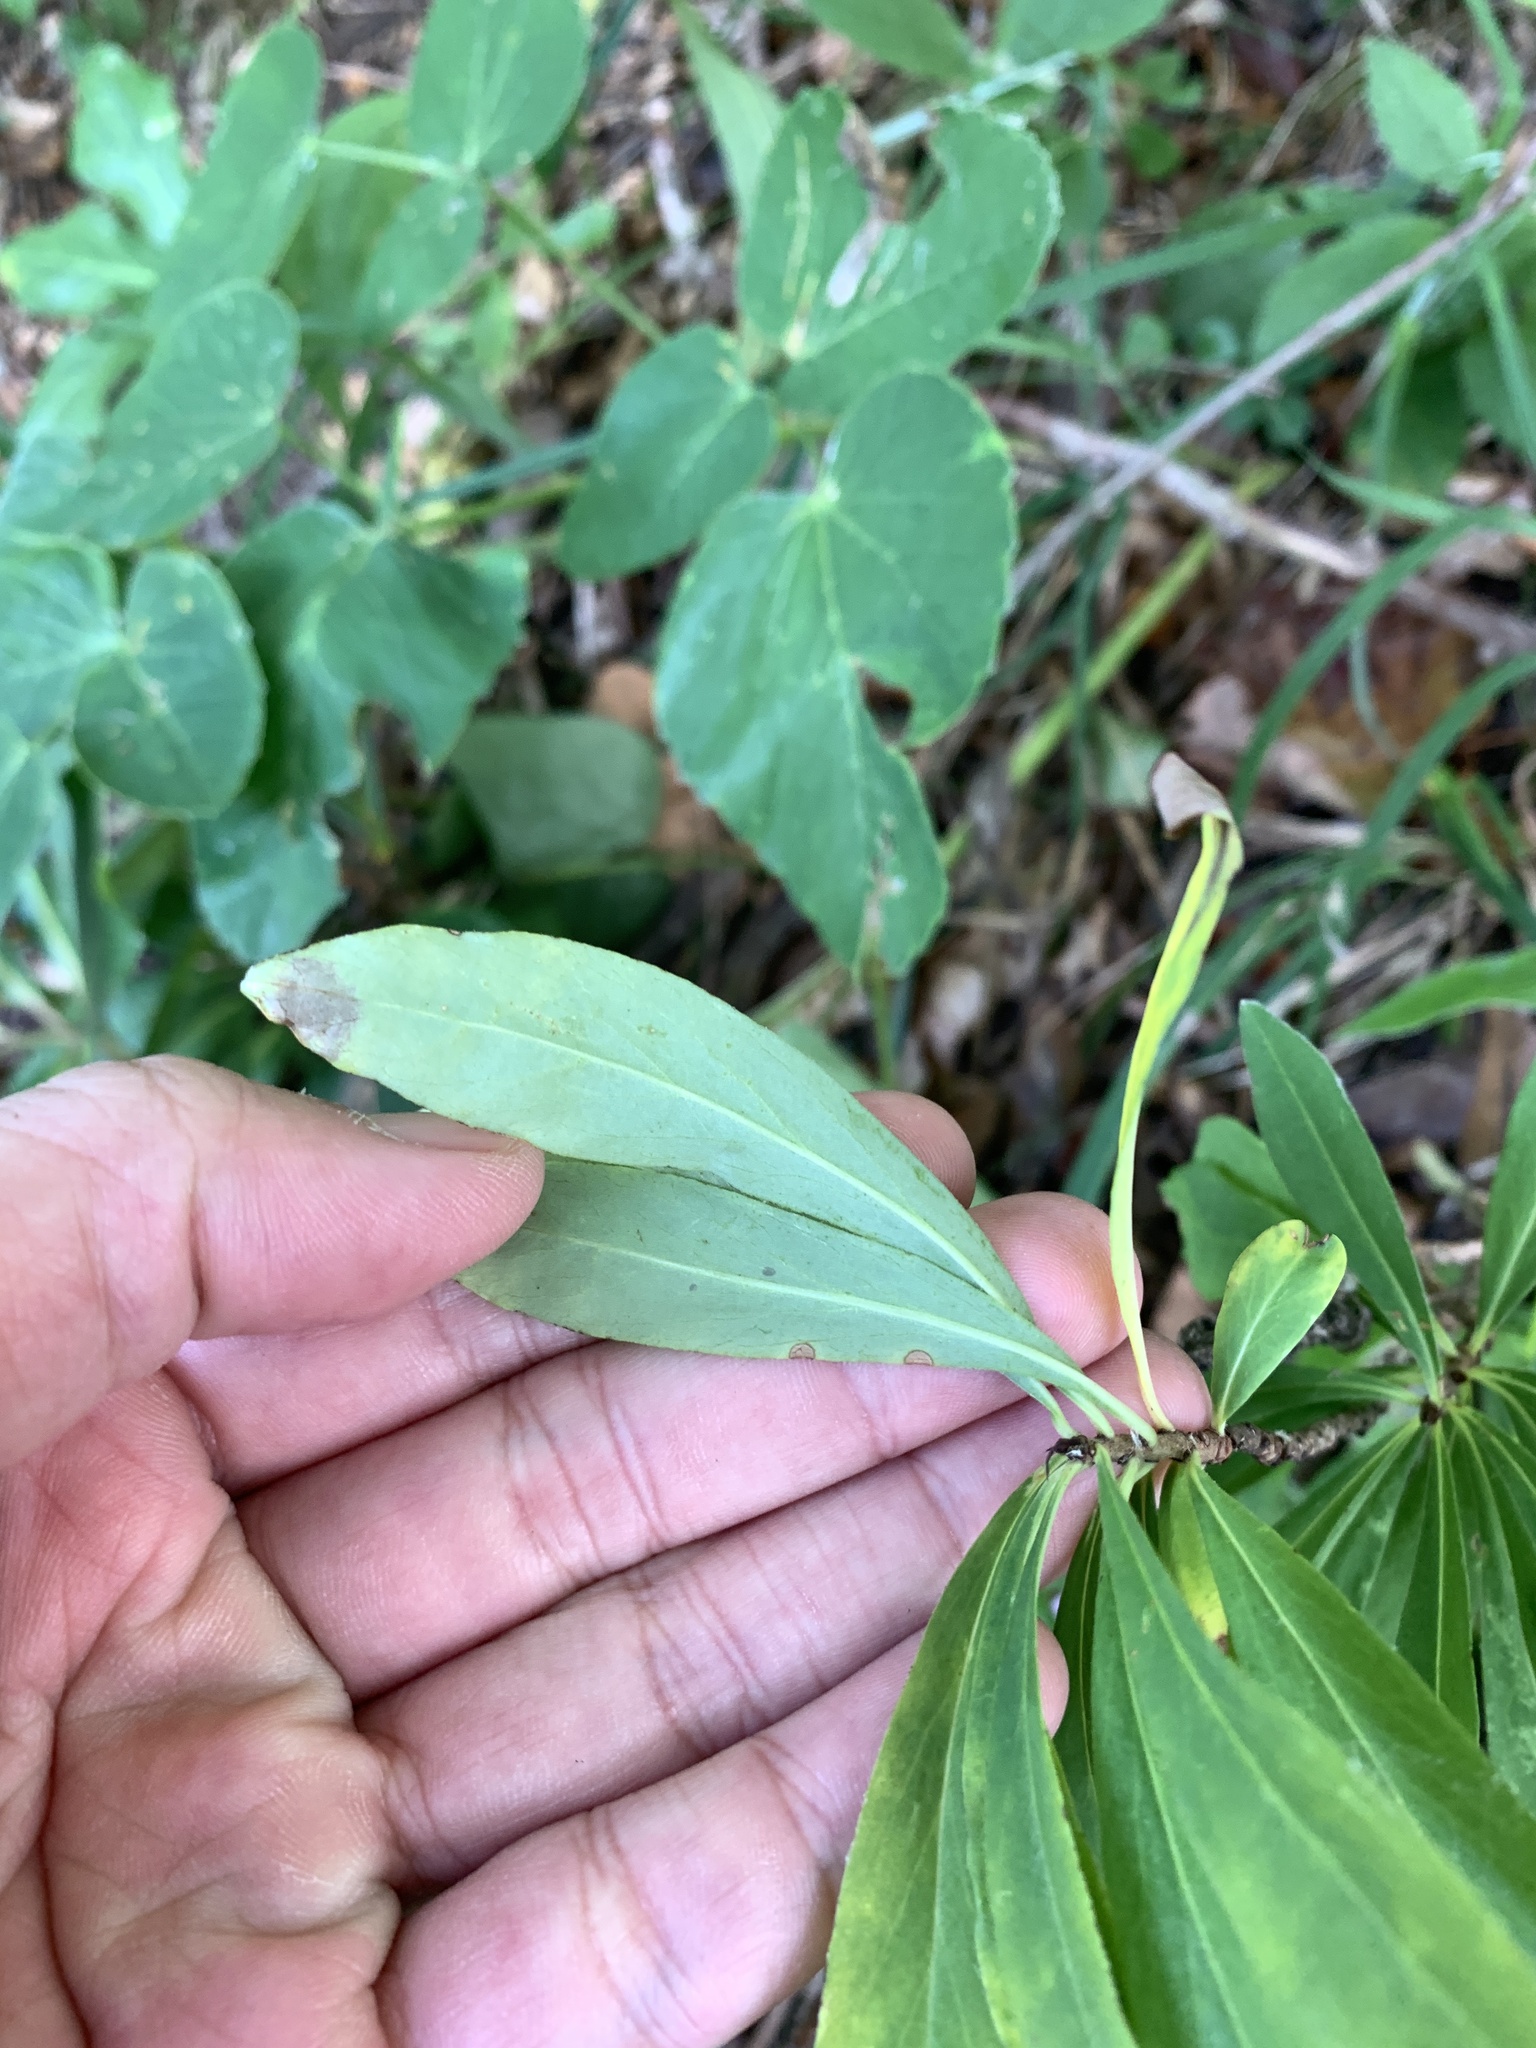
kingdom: Plantae
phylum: Tracheophyta
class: Magnoliopsida
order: Malvales
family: Thymelaeaceae
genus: Daphne
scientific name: Daphne mezereum
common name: Mezereon
